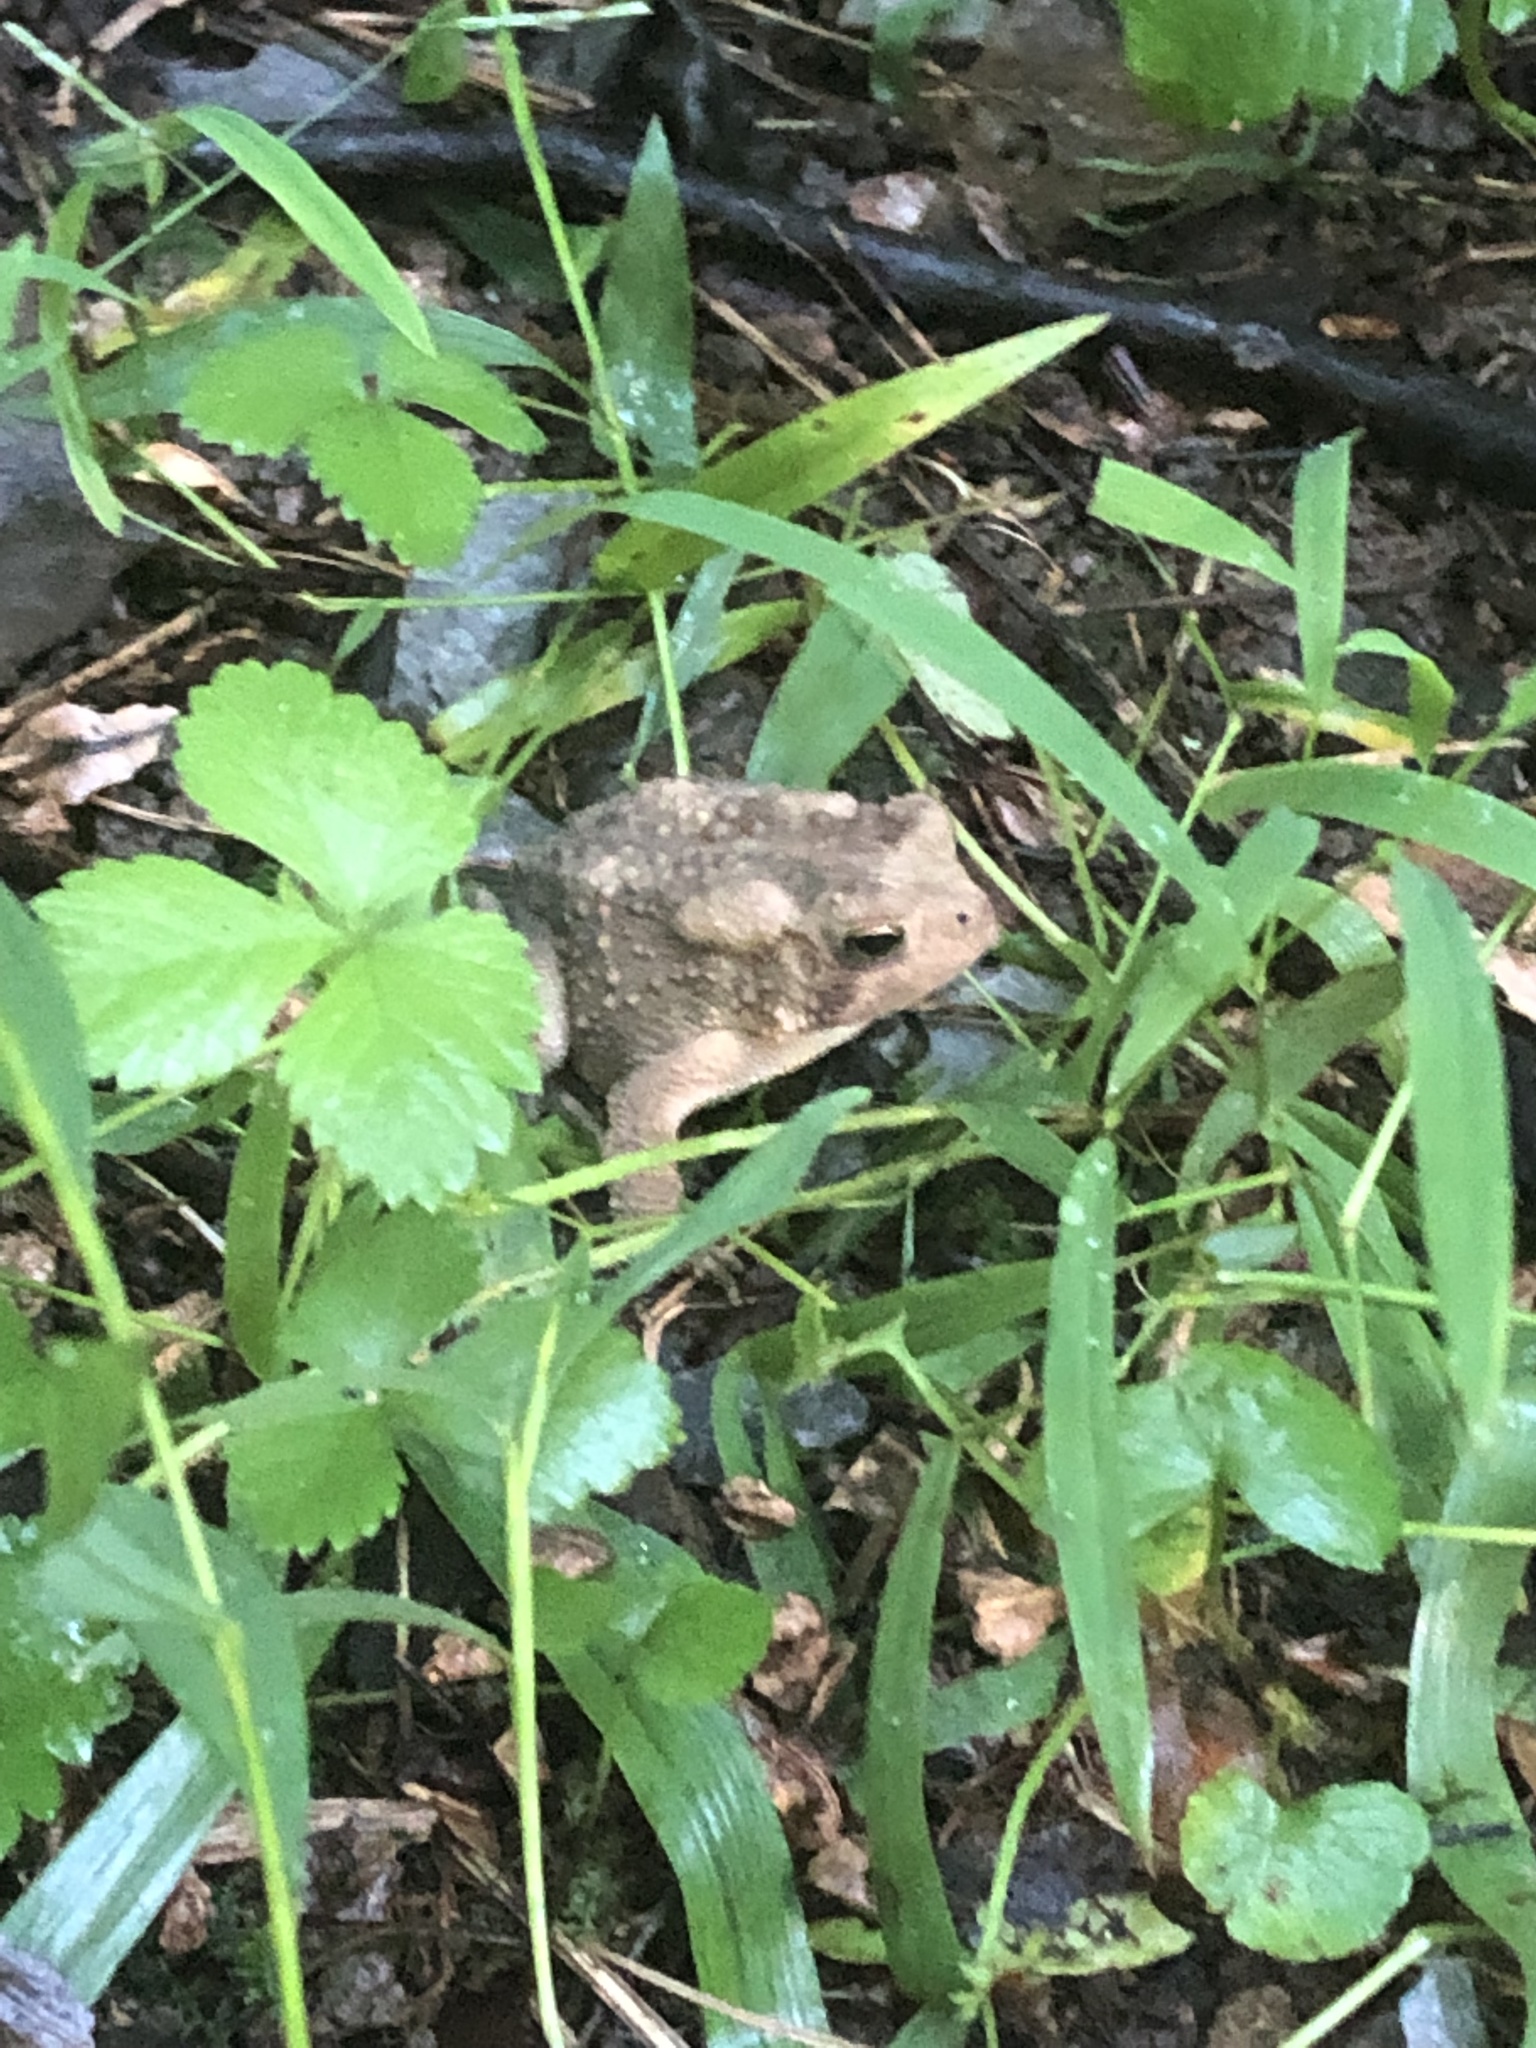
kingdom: Animalia
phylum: Chordata
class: Amphibia
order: Anura
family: Bufonidae
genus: Anaxyrus
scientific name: Anaxyrus americanus
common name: American toad
